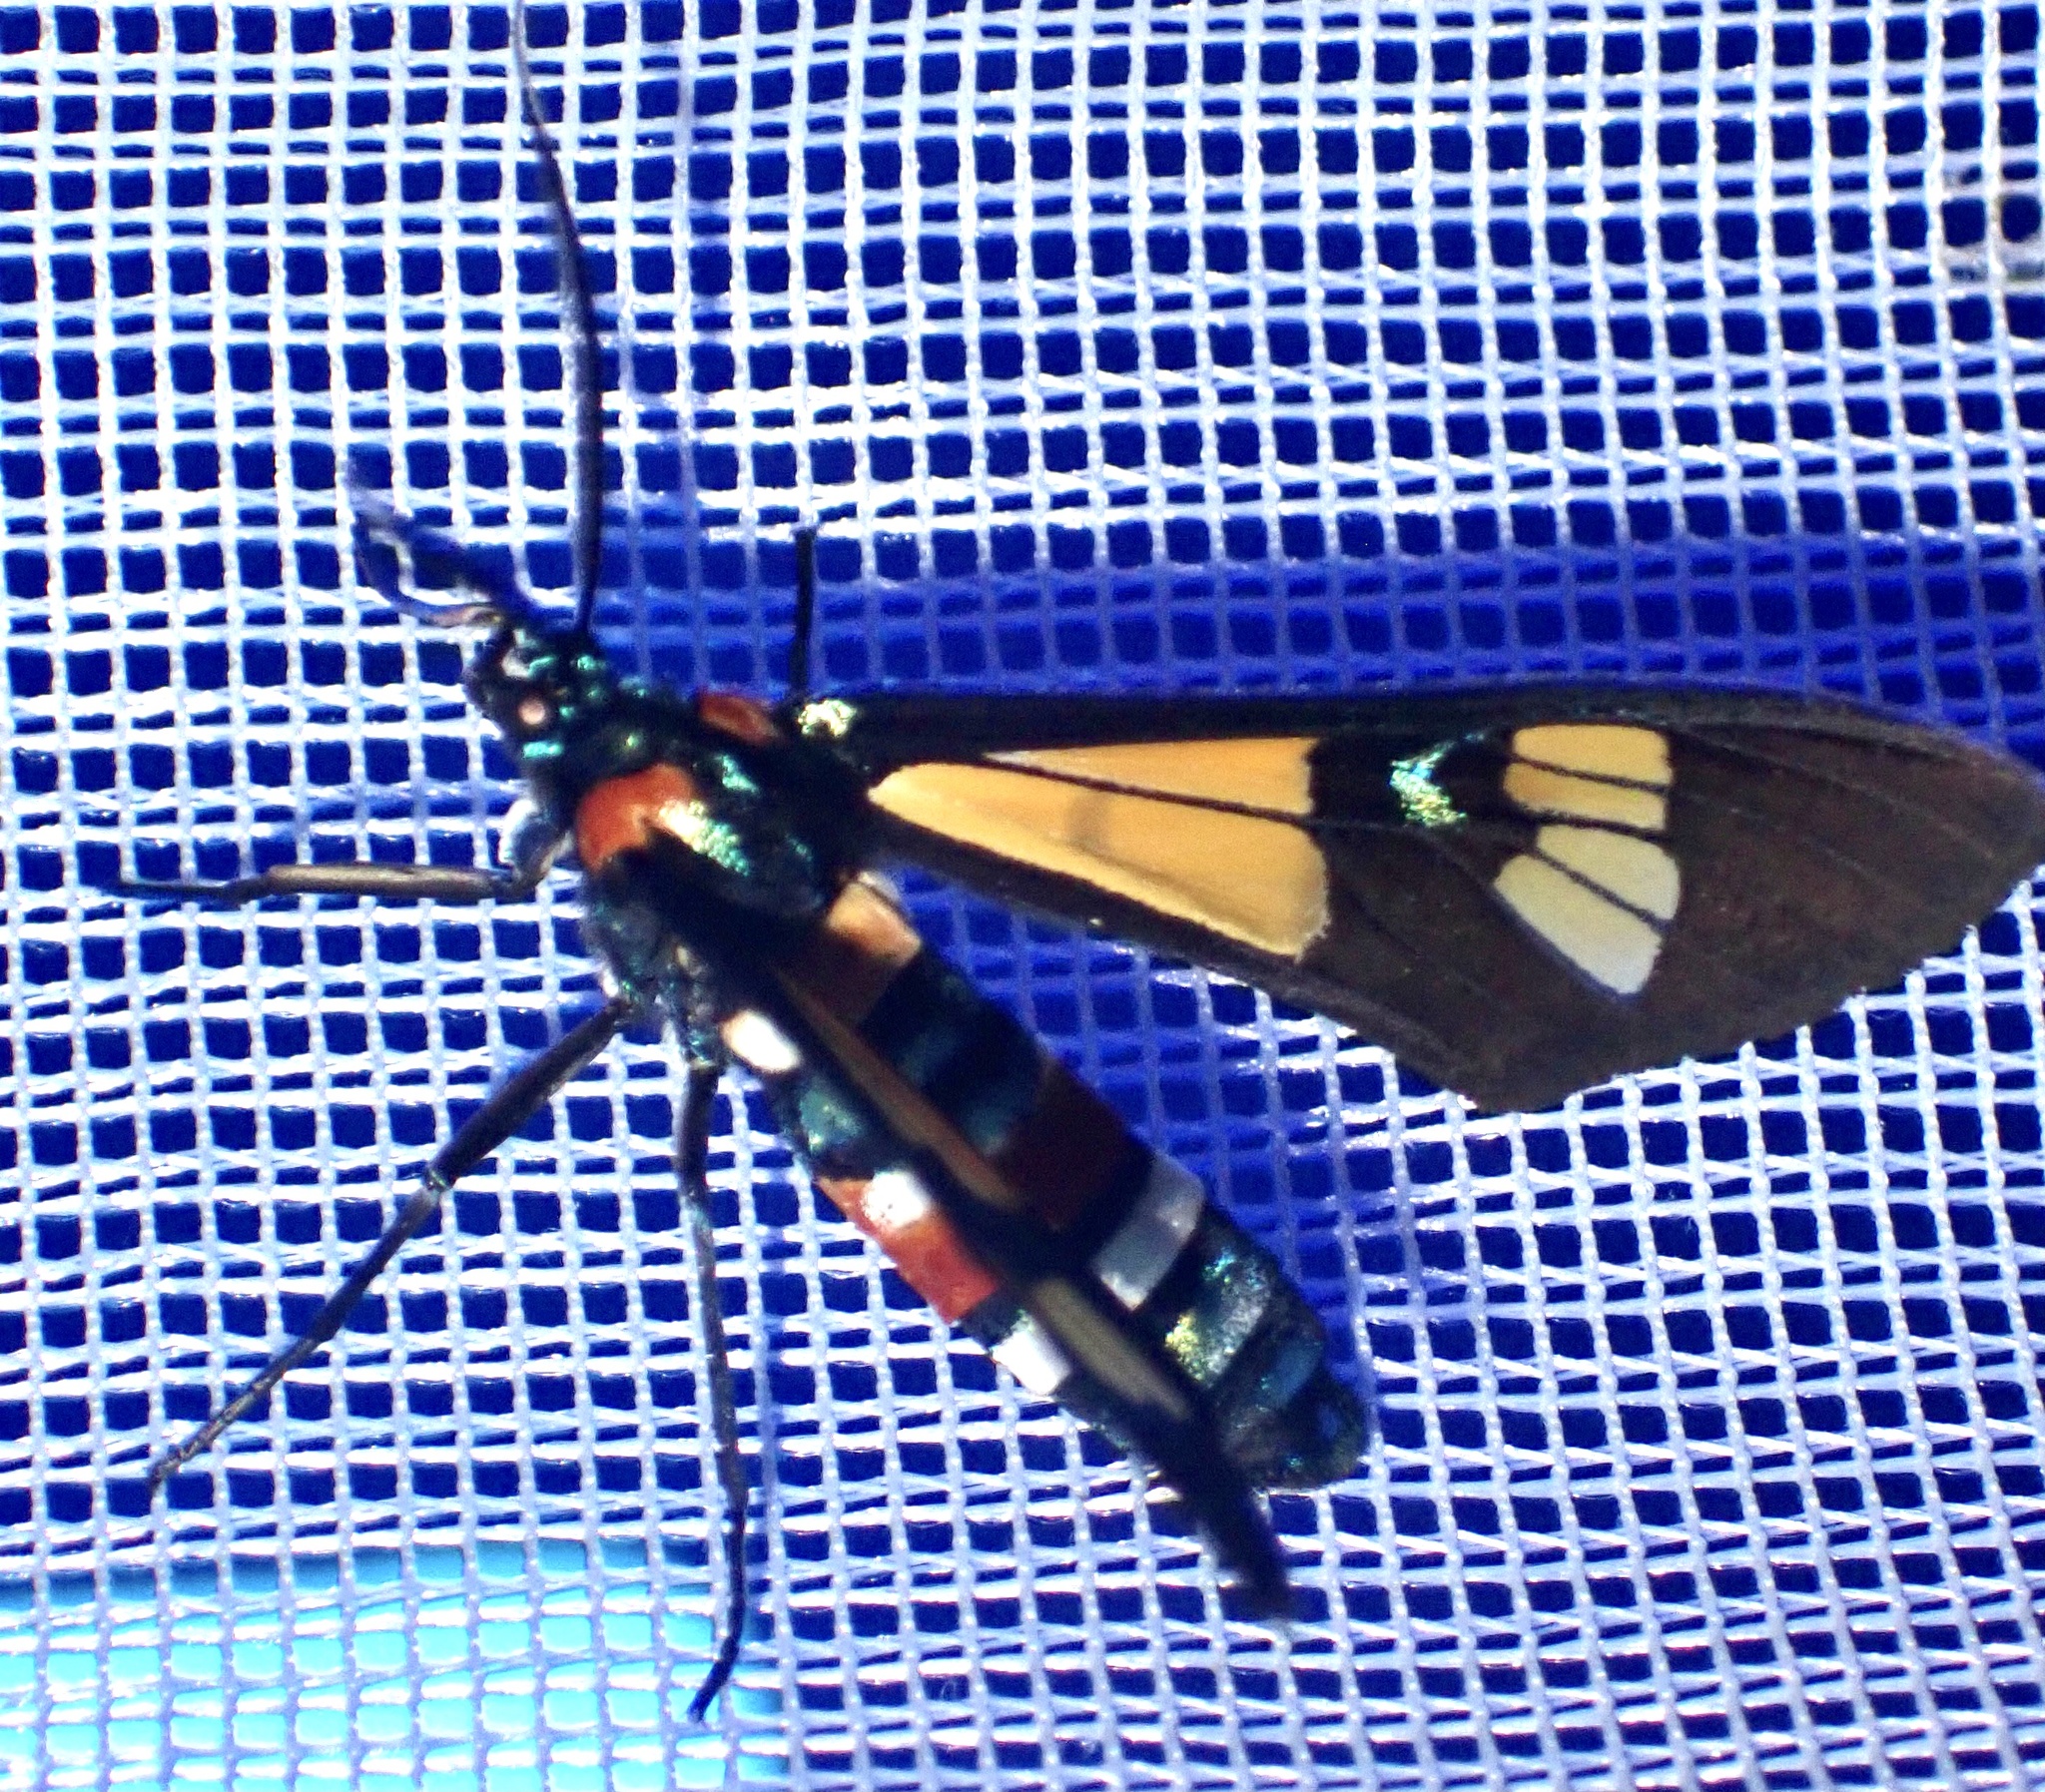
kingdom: Animalia
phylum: Arthropoda
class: Insecta
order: Lepidoptera
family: Erebidae
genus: Euchromia
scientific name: Euchromia lethe
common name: Basker
